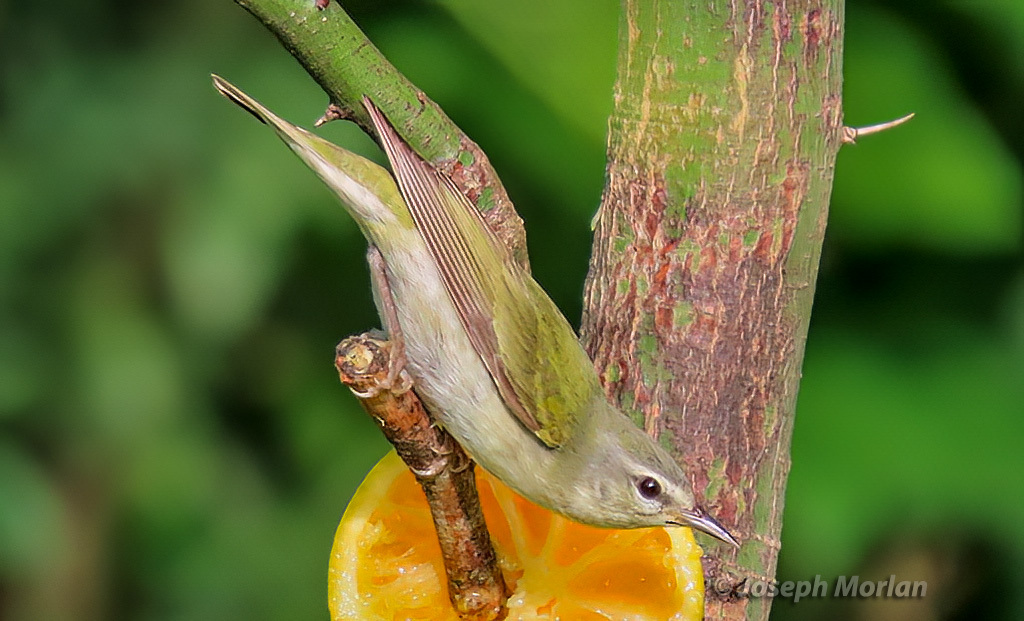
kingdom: Animalia
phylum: Chordata
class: Aves
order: Passeriformes
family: Parulidae
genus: Leiothlypis
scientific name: Leiothlypis peregrina
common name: Tennessee warbler
